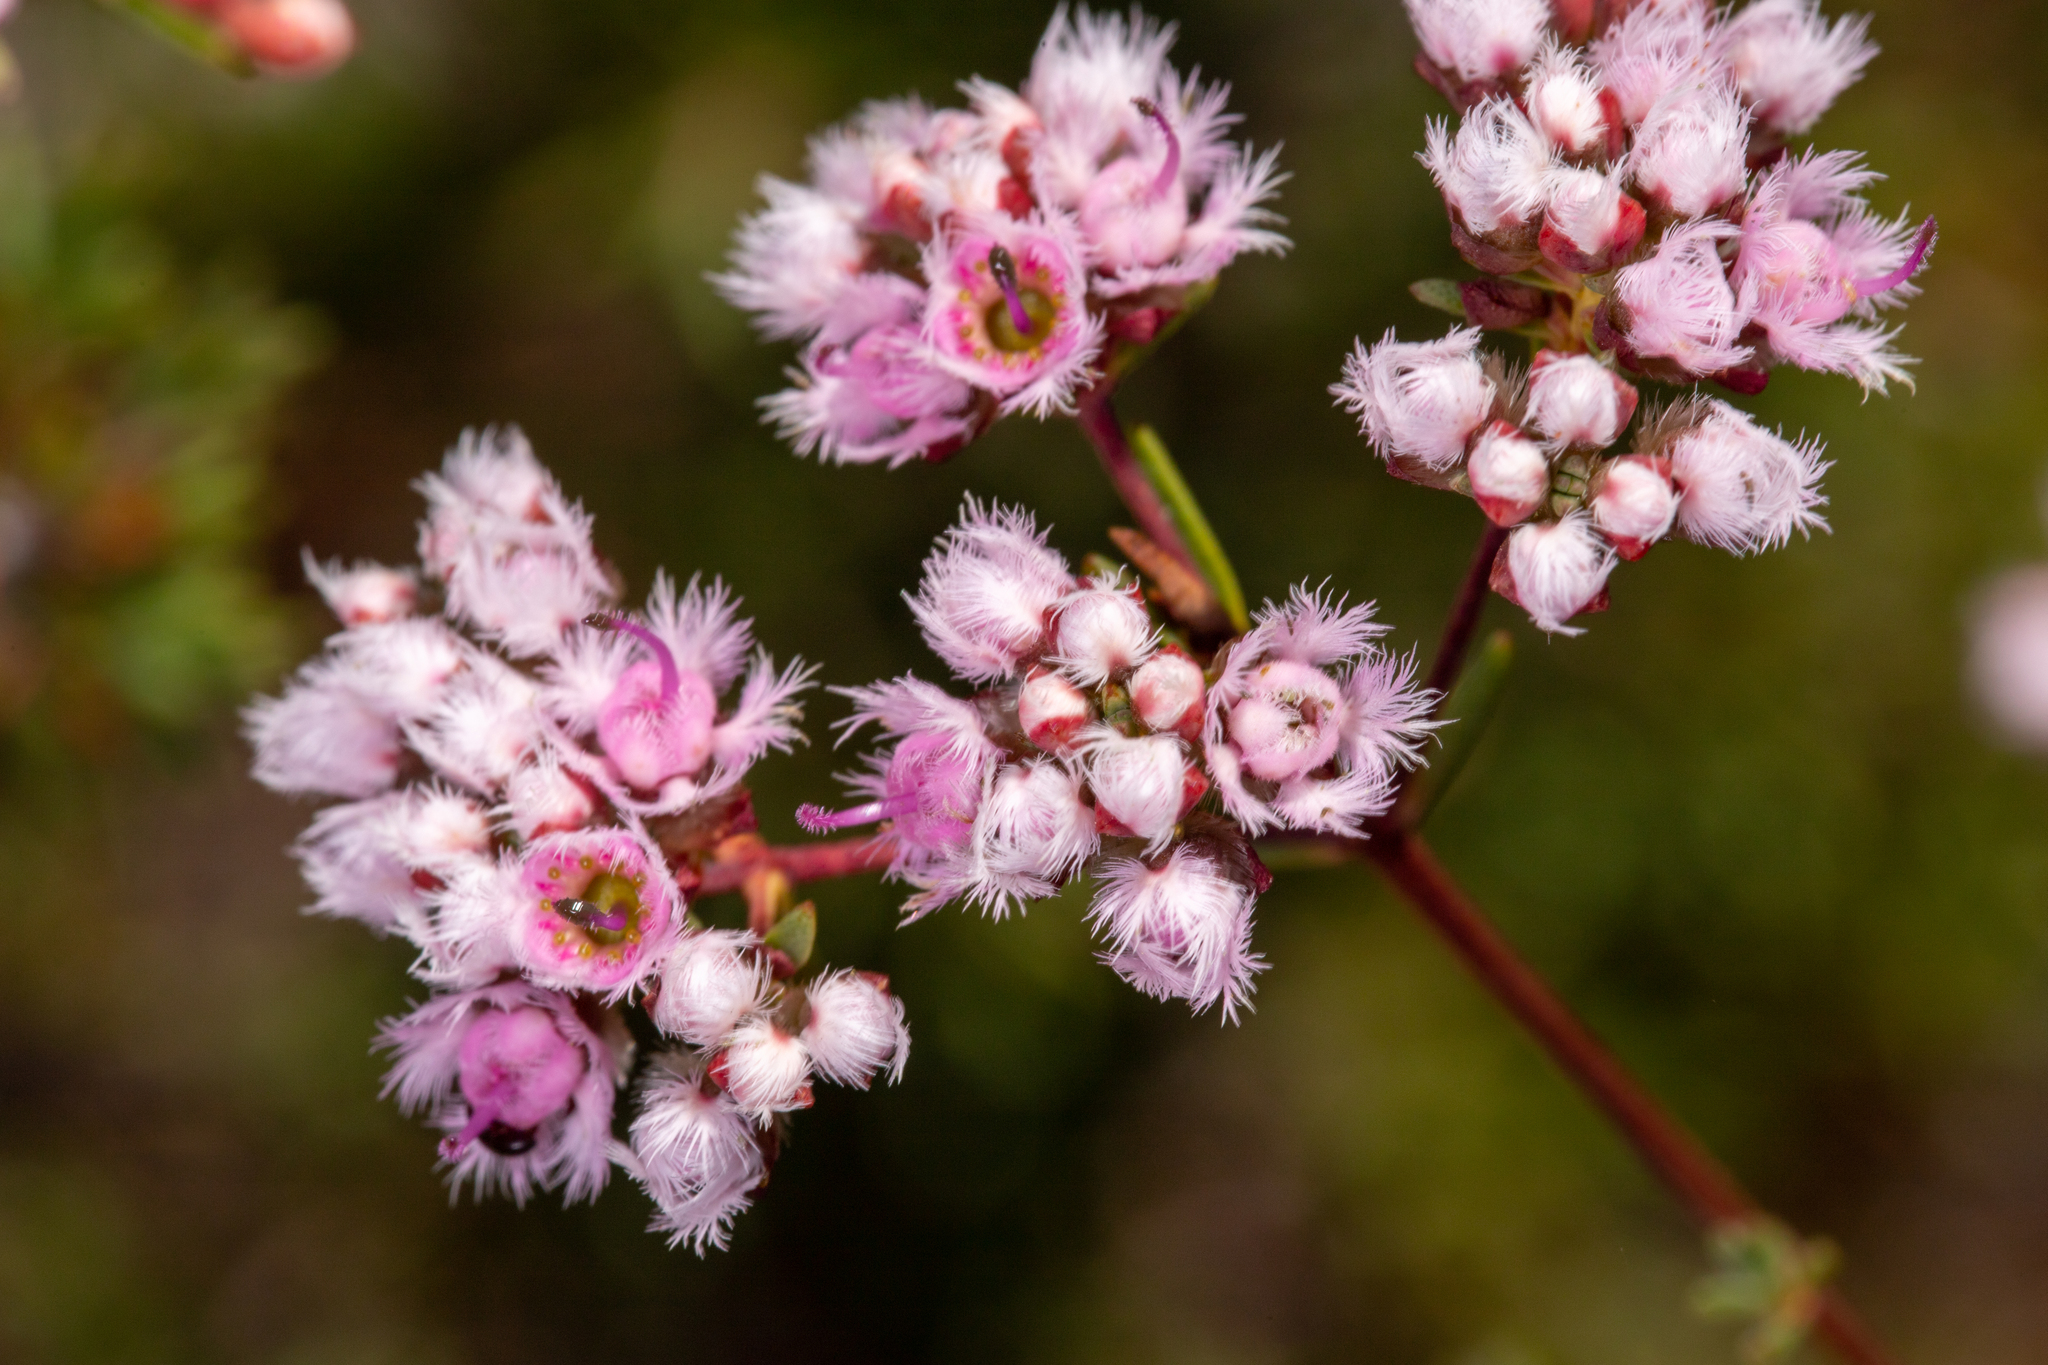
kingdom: Plantae
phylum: Tracheophyta
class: Magnoliopsida
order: Myrtales
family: Myrtaceae
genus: Verticordia
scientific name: Verticordia densiflora
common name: Compact feather-flower
